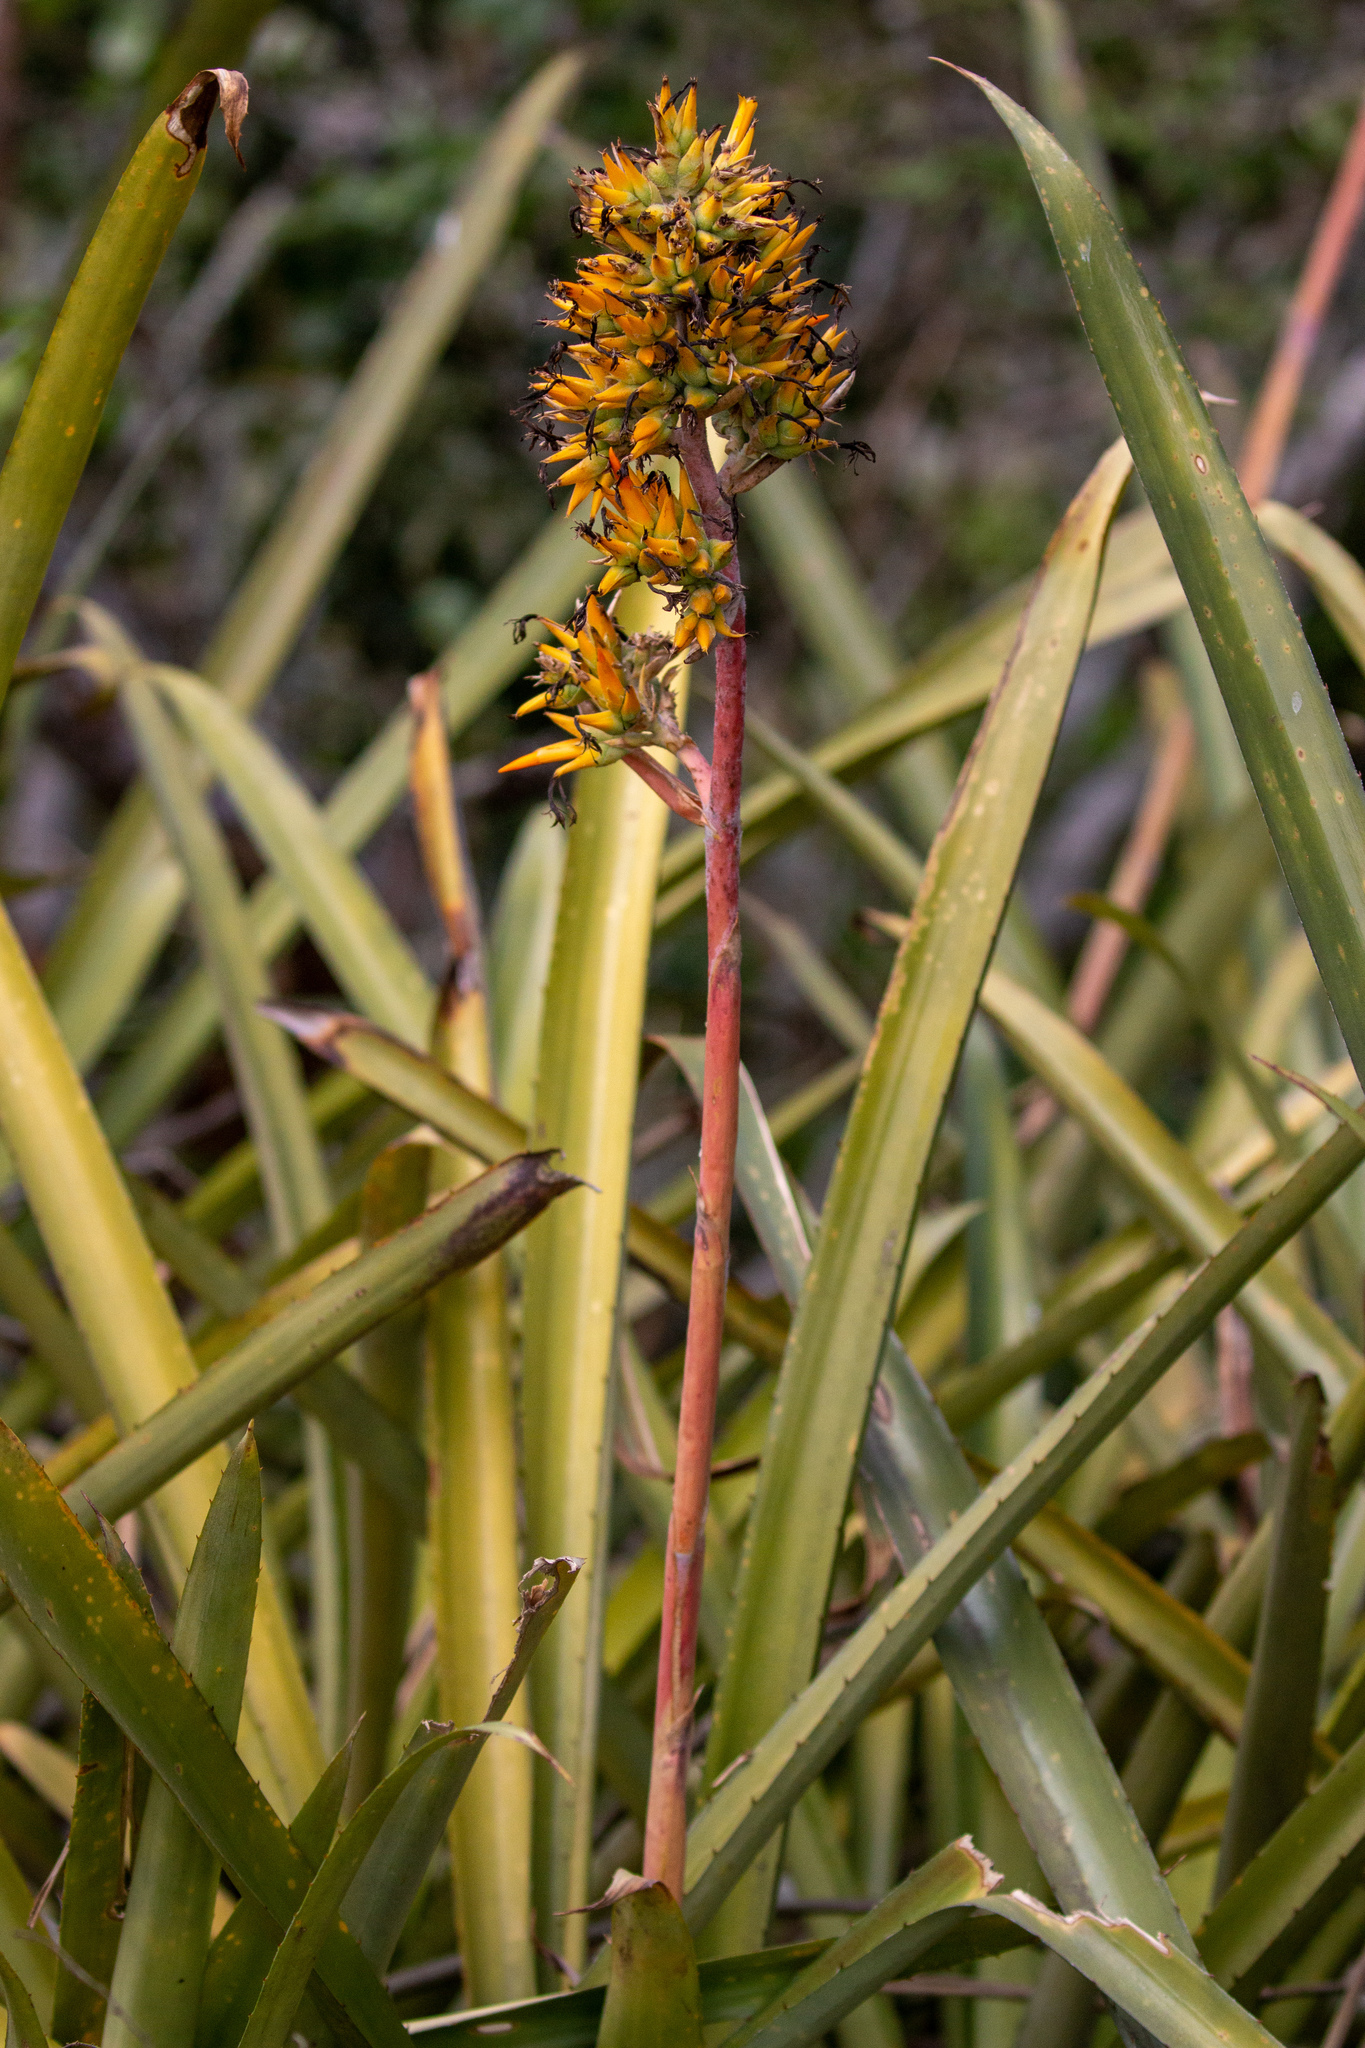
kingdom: Plantae
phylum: Tracheophyta
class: Liliopsida
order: Poales
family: Bromeliaceae
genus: Aechmea
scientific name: Aechmea aquilega
